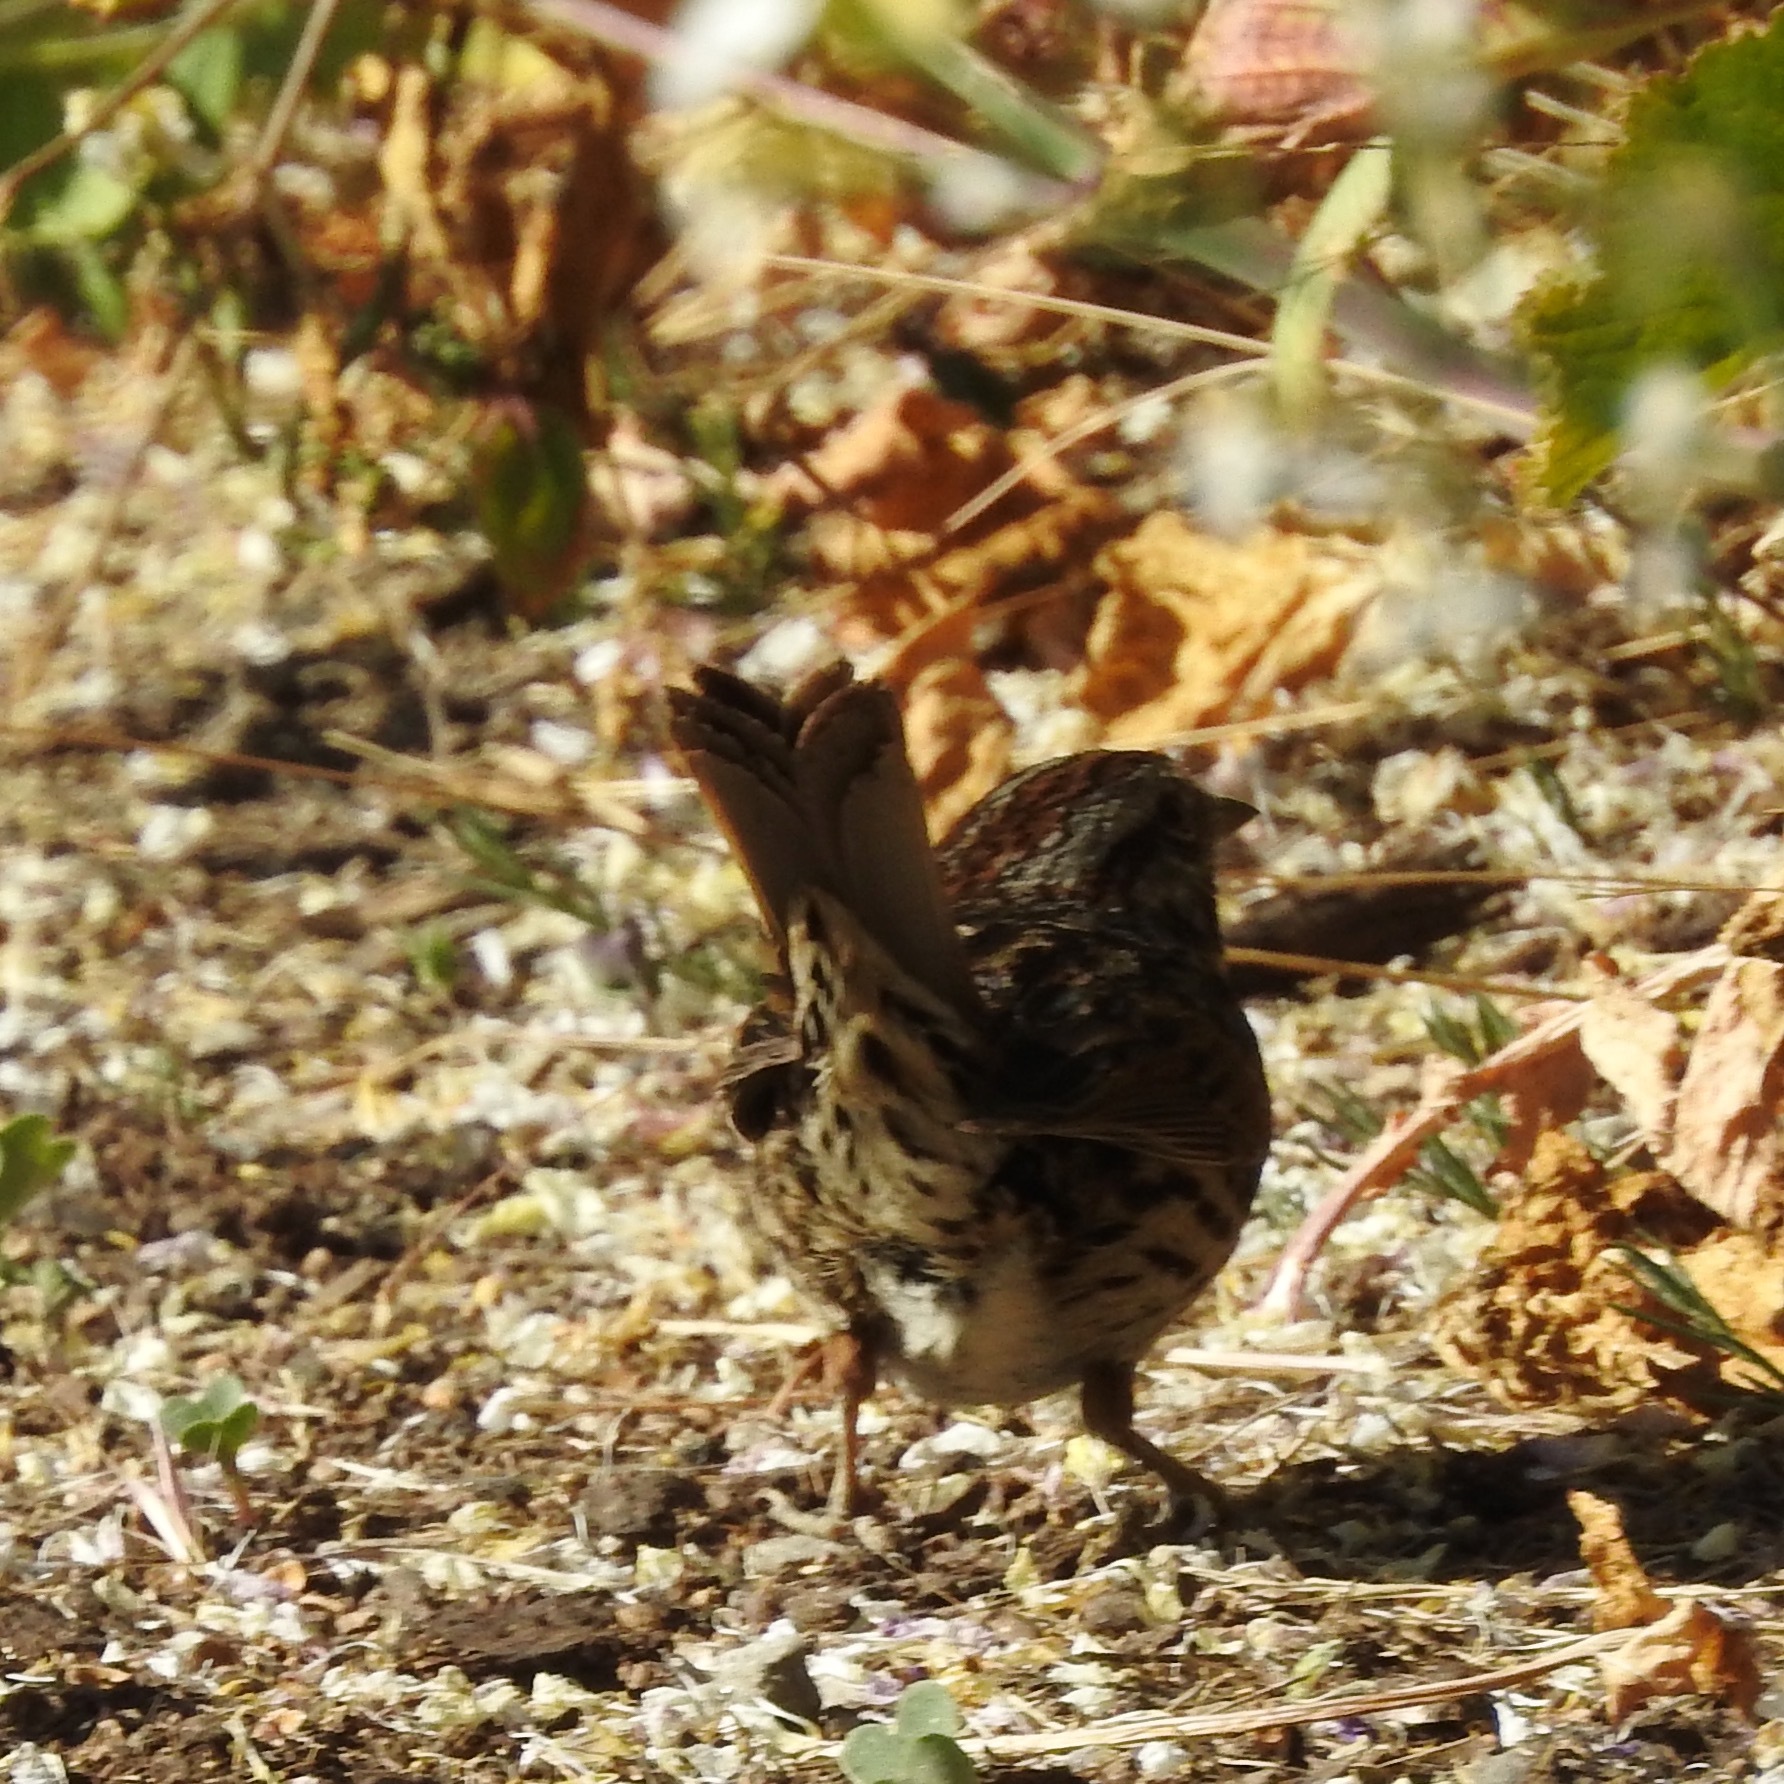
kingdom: Animalia
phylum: Chordata
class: Aves
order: Passeriformes
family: Passerellidae
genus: Melospiza
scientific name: Melospiza melodia
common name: Song sparrow
